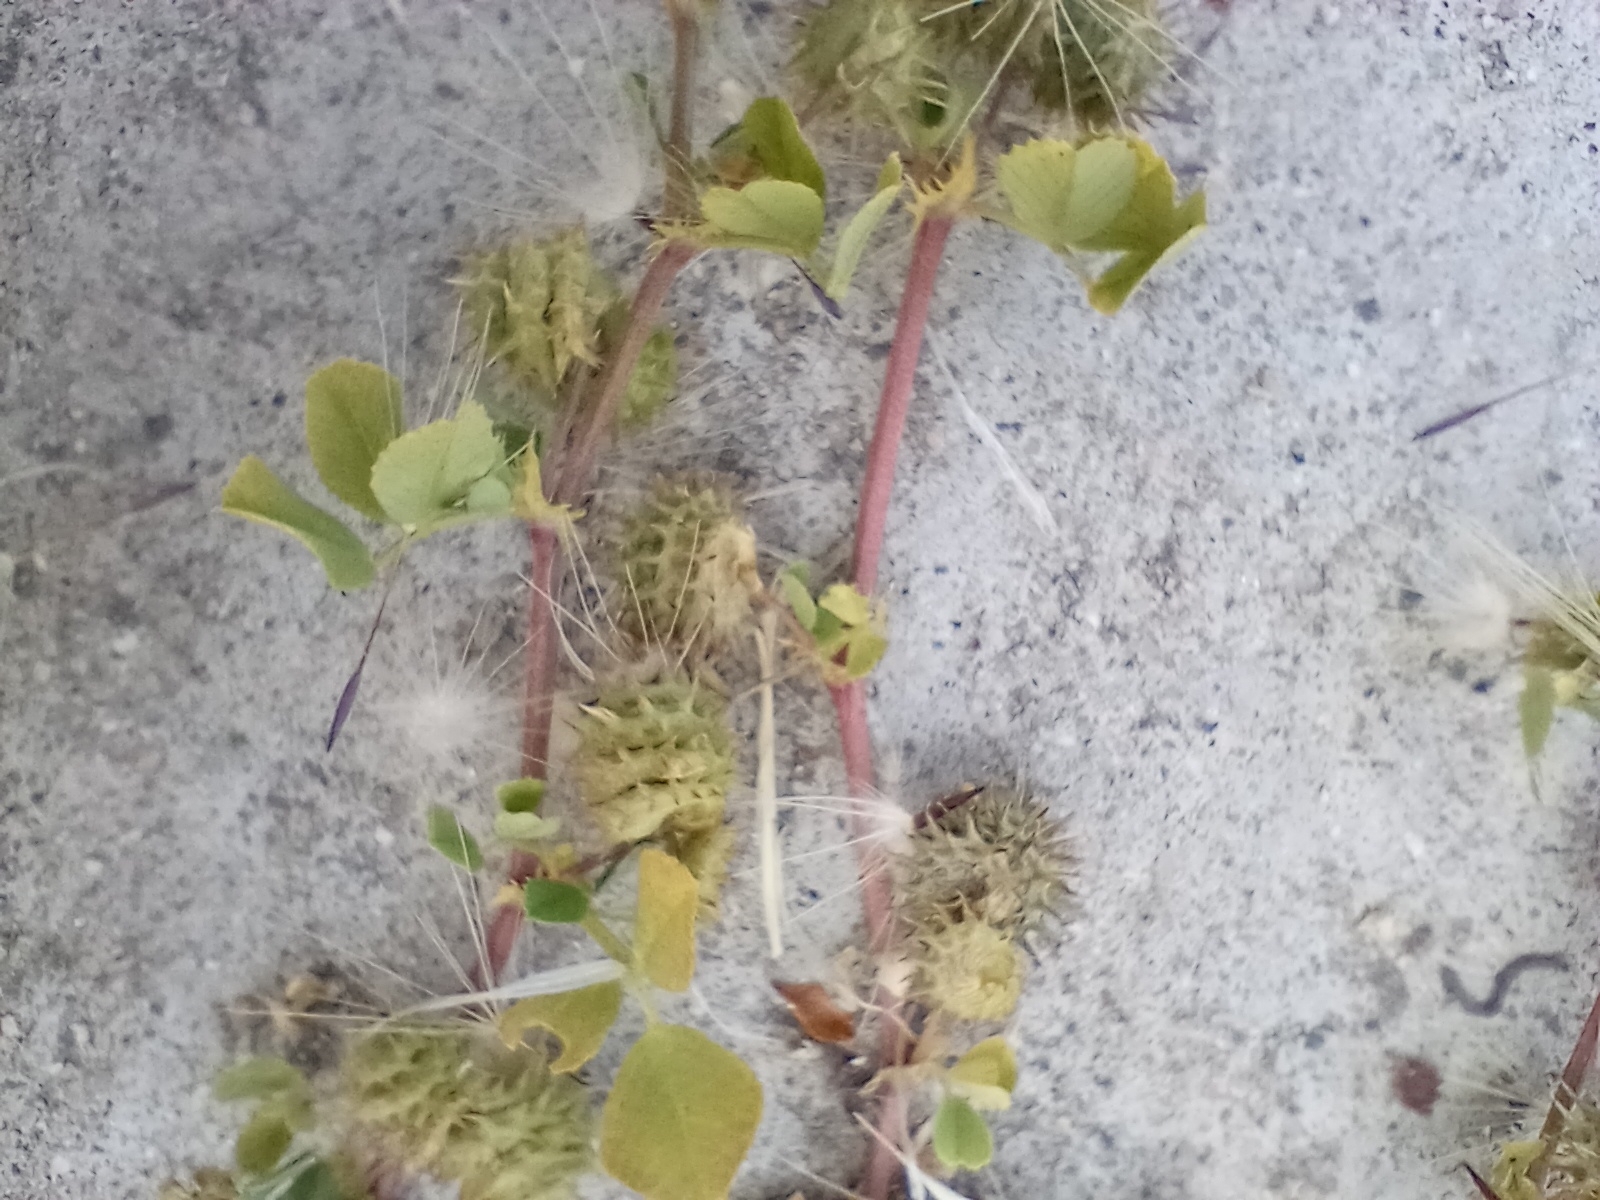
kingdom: Plantae
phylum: Tracheophyta
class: Magnoliopsida
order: Fabales
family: Fabaceae
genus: Medicago
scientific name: Medicago polymorpha
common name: Burclover
